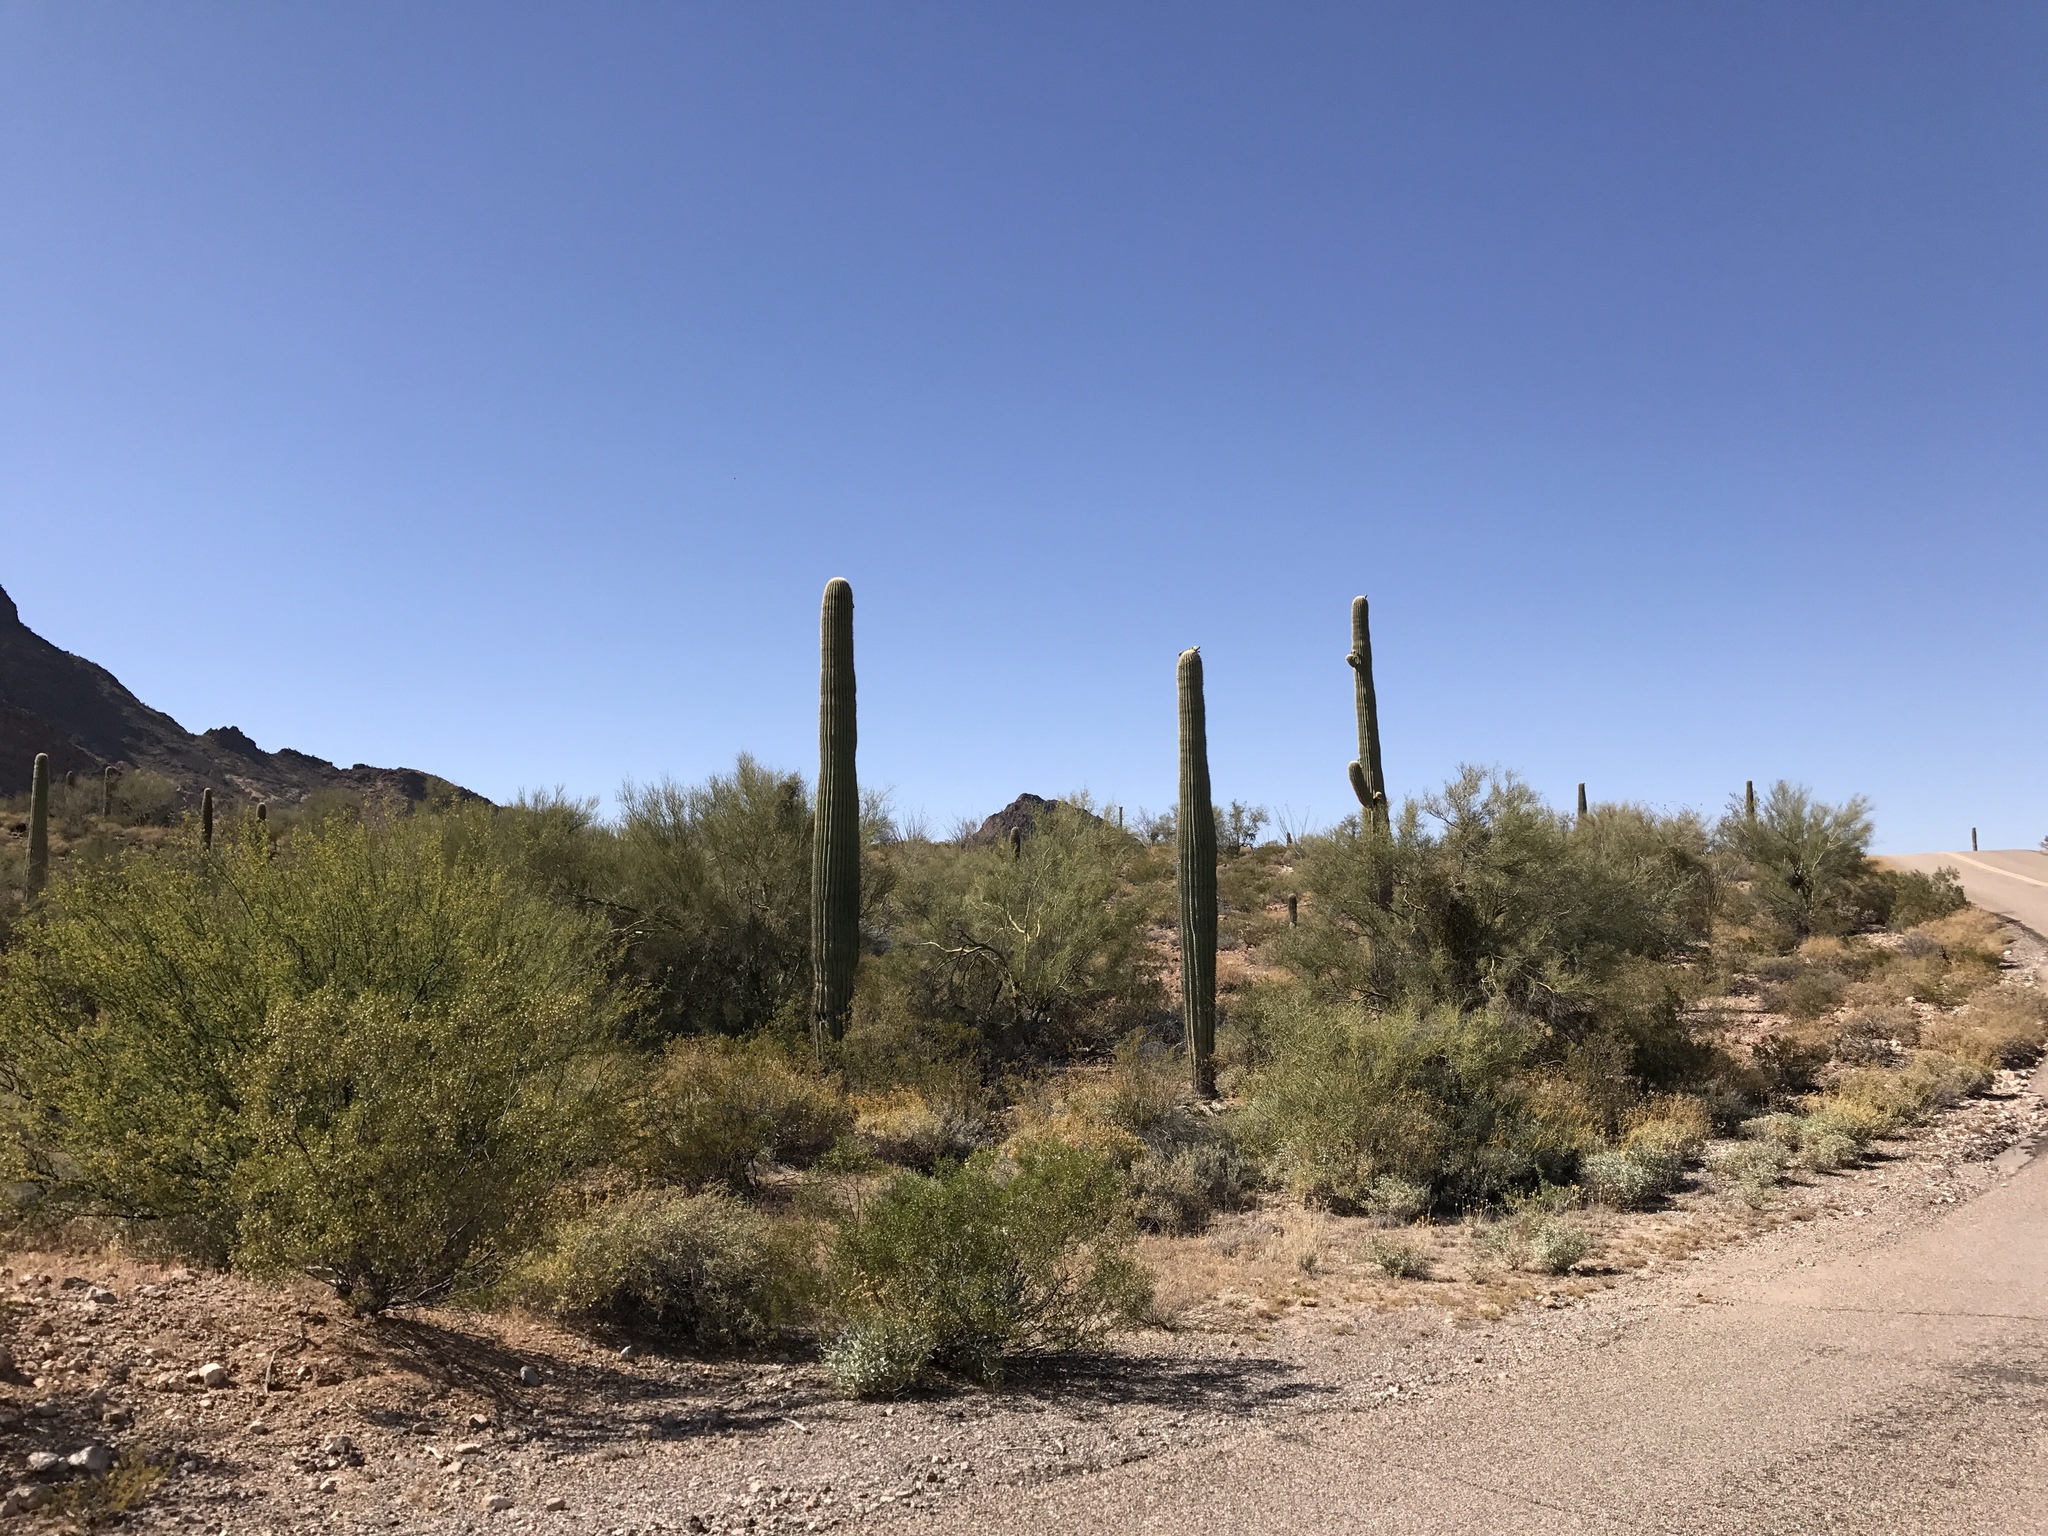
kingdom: Plantae
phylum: Tracheophyta
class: Magnoliopsida
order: Caryophyllales
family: Cactaceae
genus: Carnegiea
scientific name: Carnegiea gigantea
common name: Saguaro
